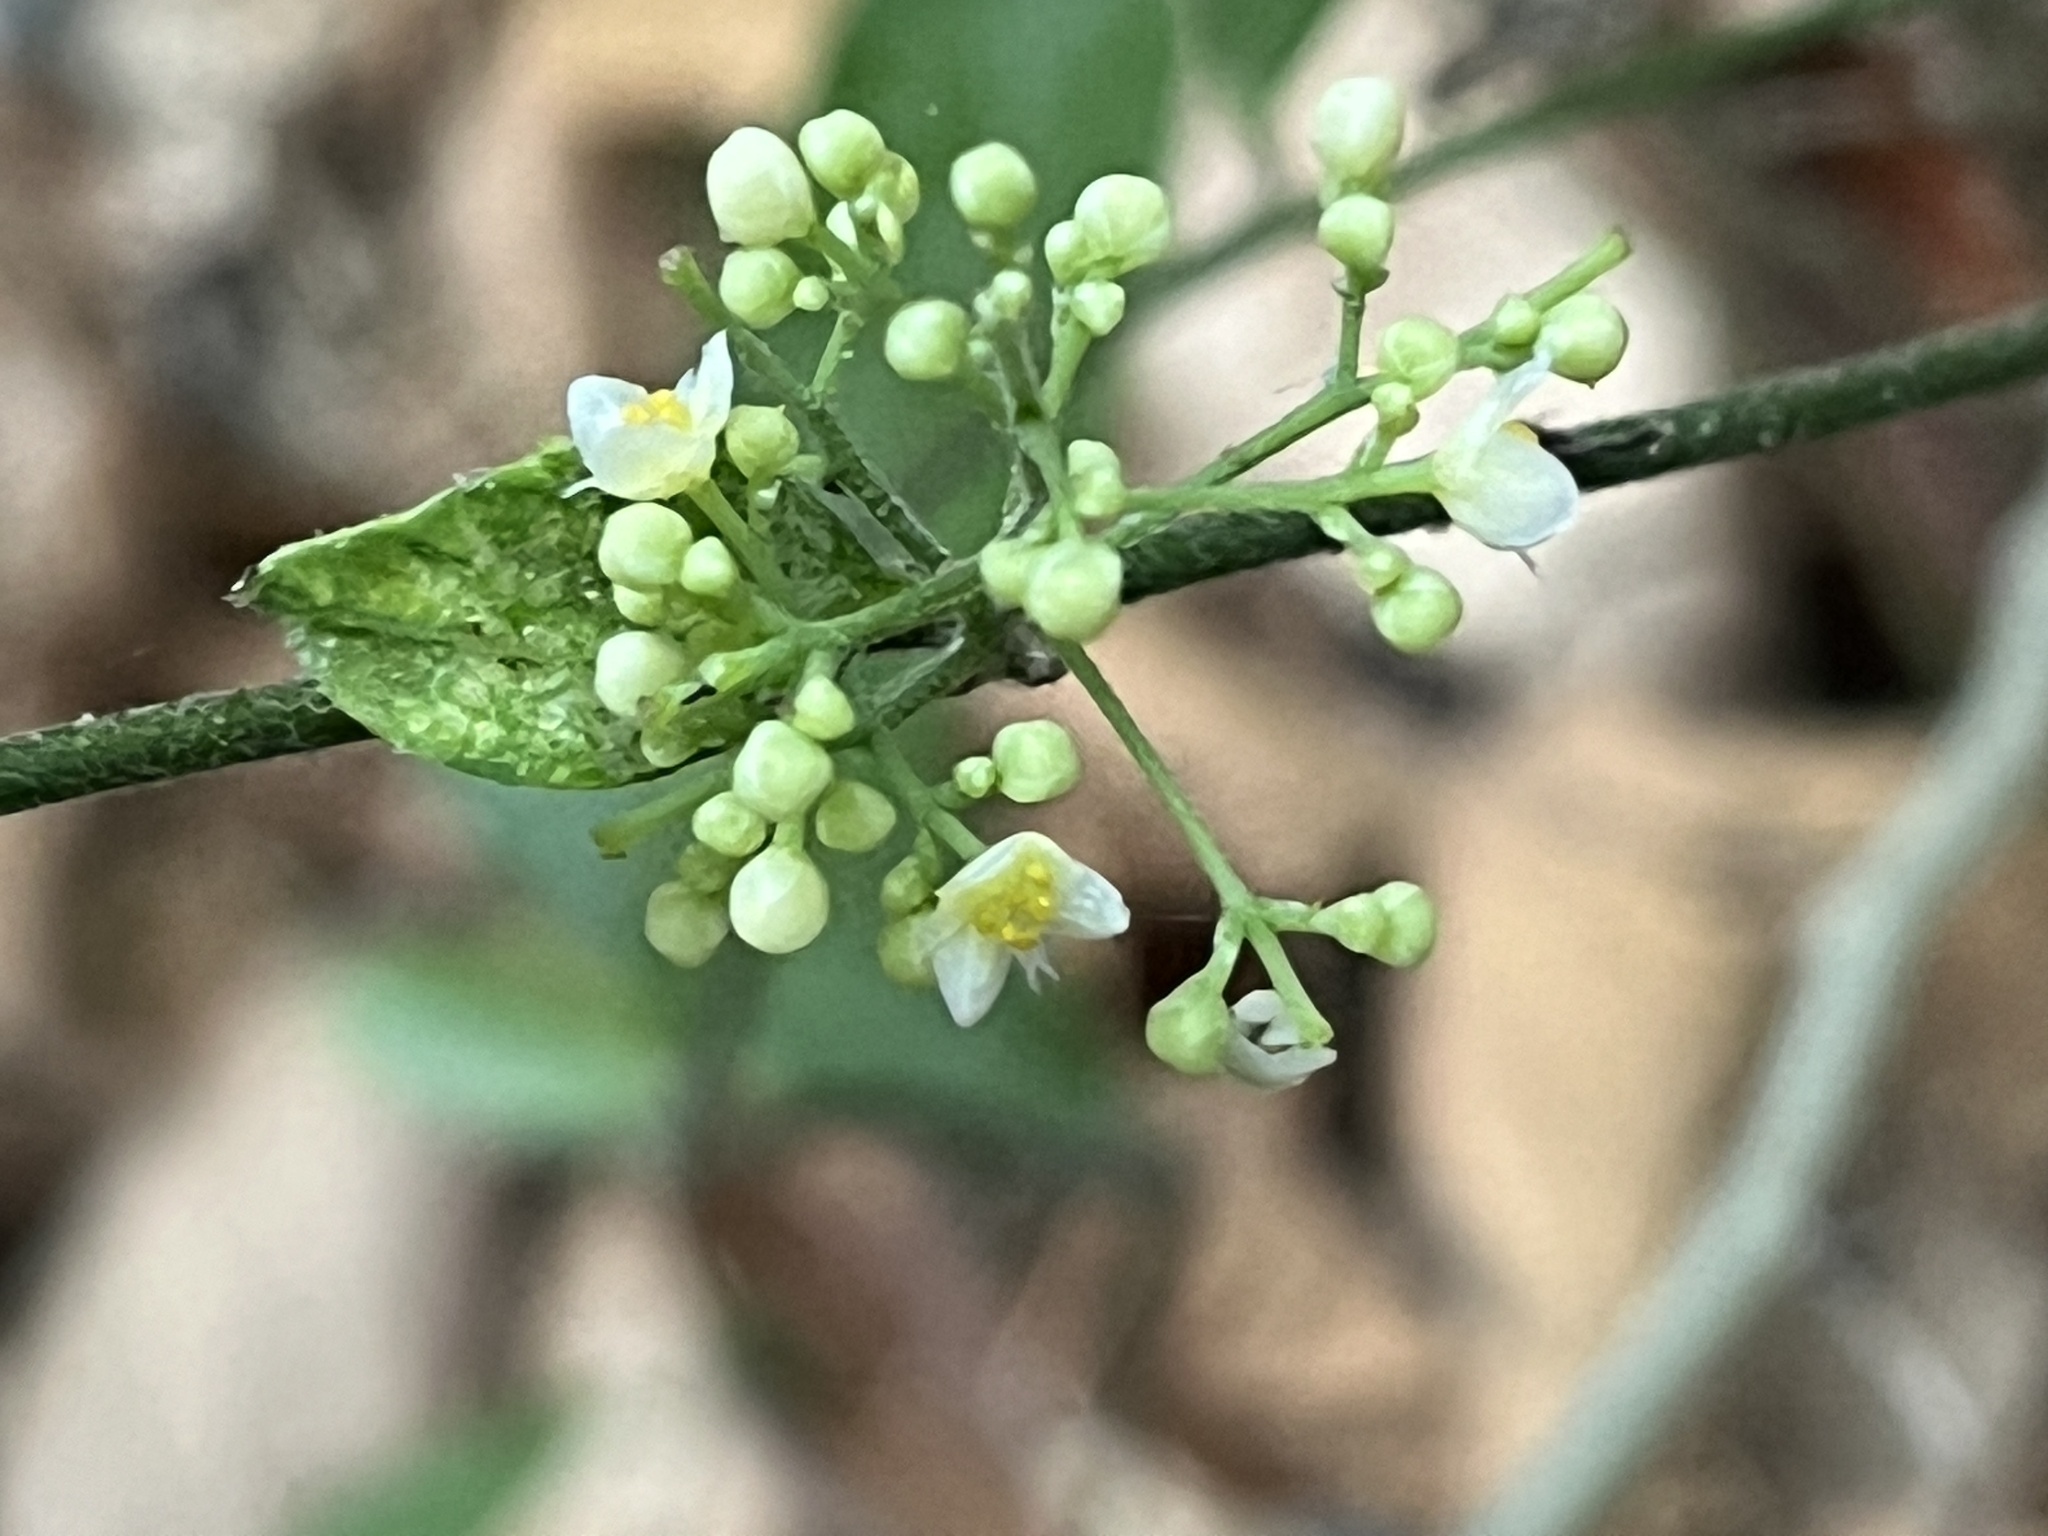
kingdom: Plantae
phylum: Tracheophyta
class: Magnoliopsida
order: Ranunculales
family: Menispermaceae
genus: Cocculus
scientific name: Cocculus orbiculatus
